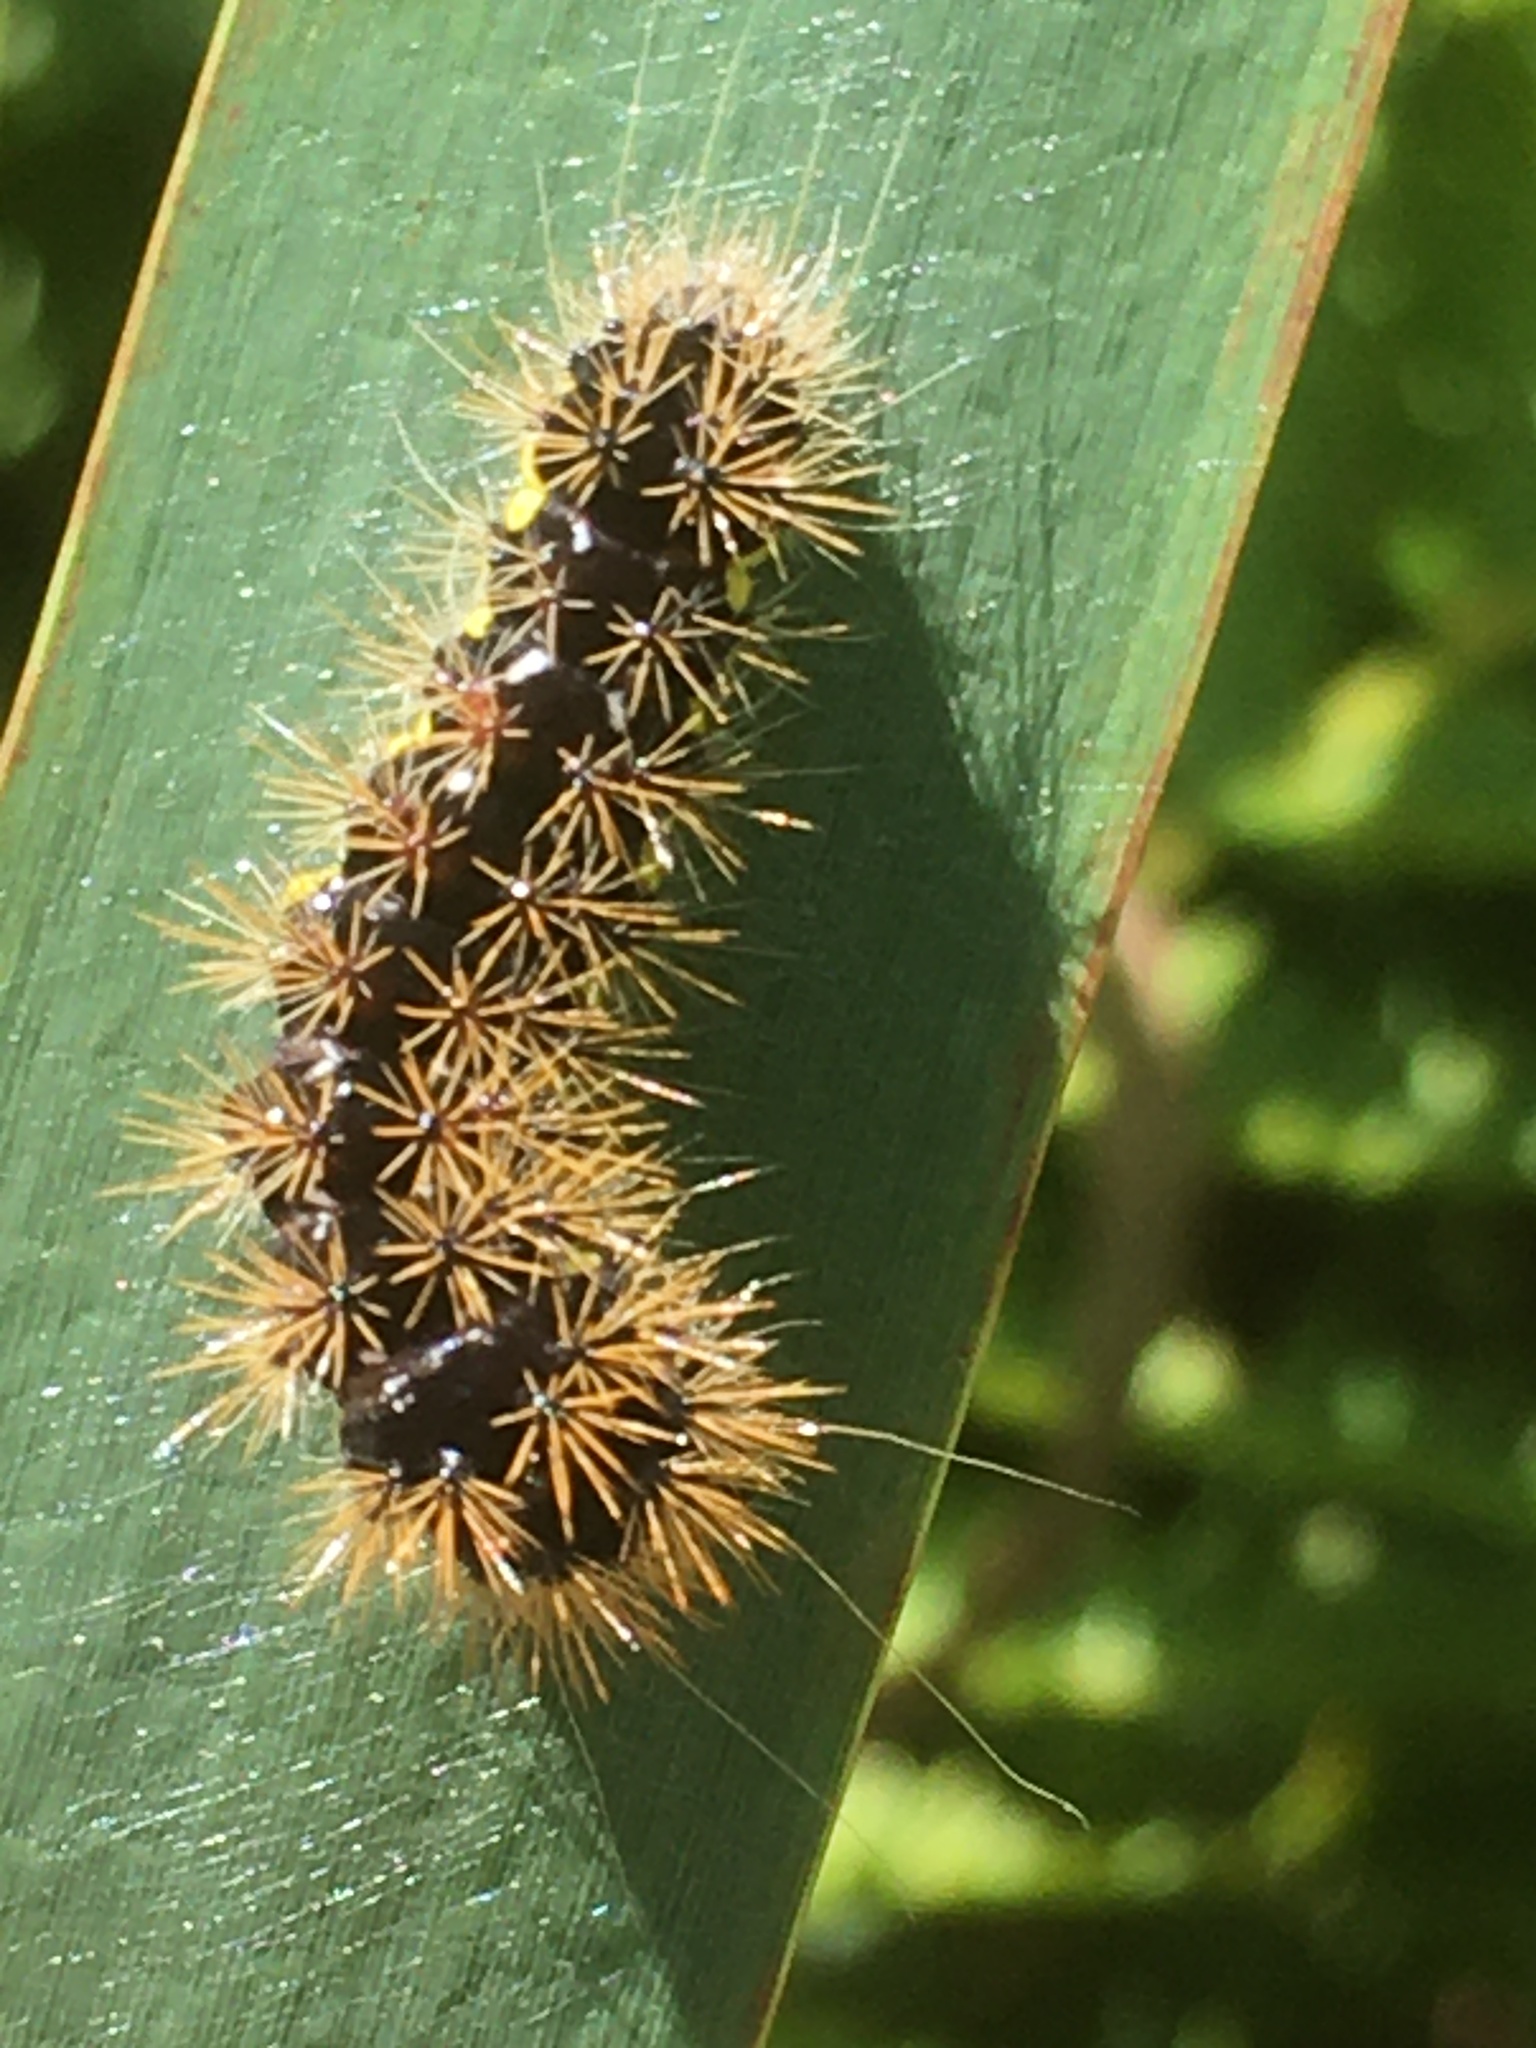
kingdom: Animalia
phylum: Arthropoda
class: Insecta
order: Lepidoptera
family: Noctuidae
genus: Acronicta
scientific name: Acronicta oblinita
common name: Smeared dagger
